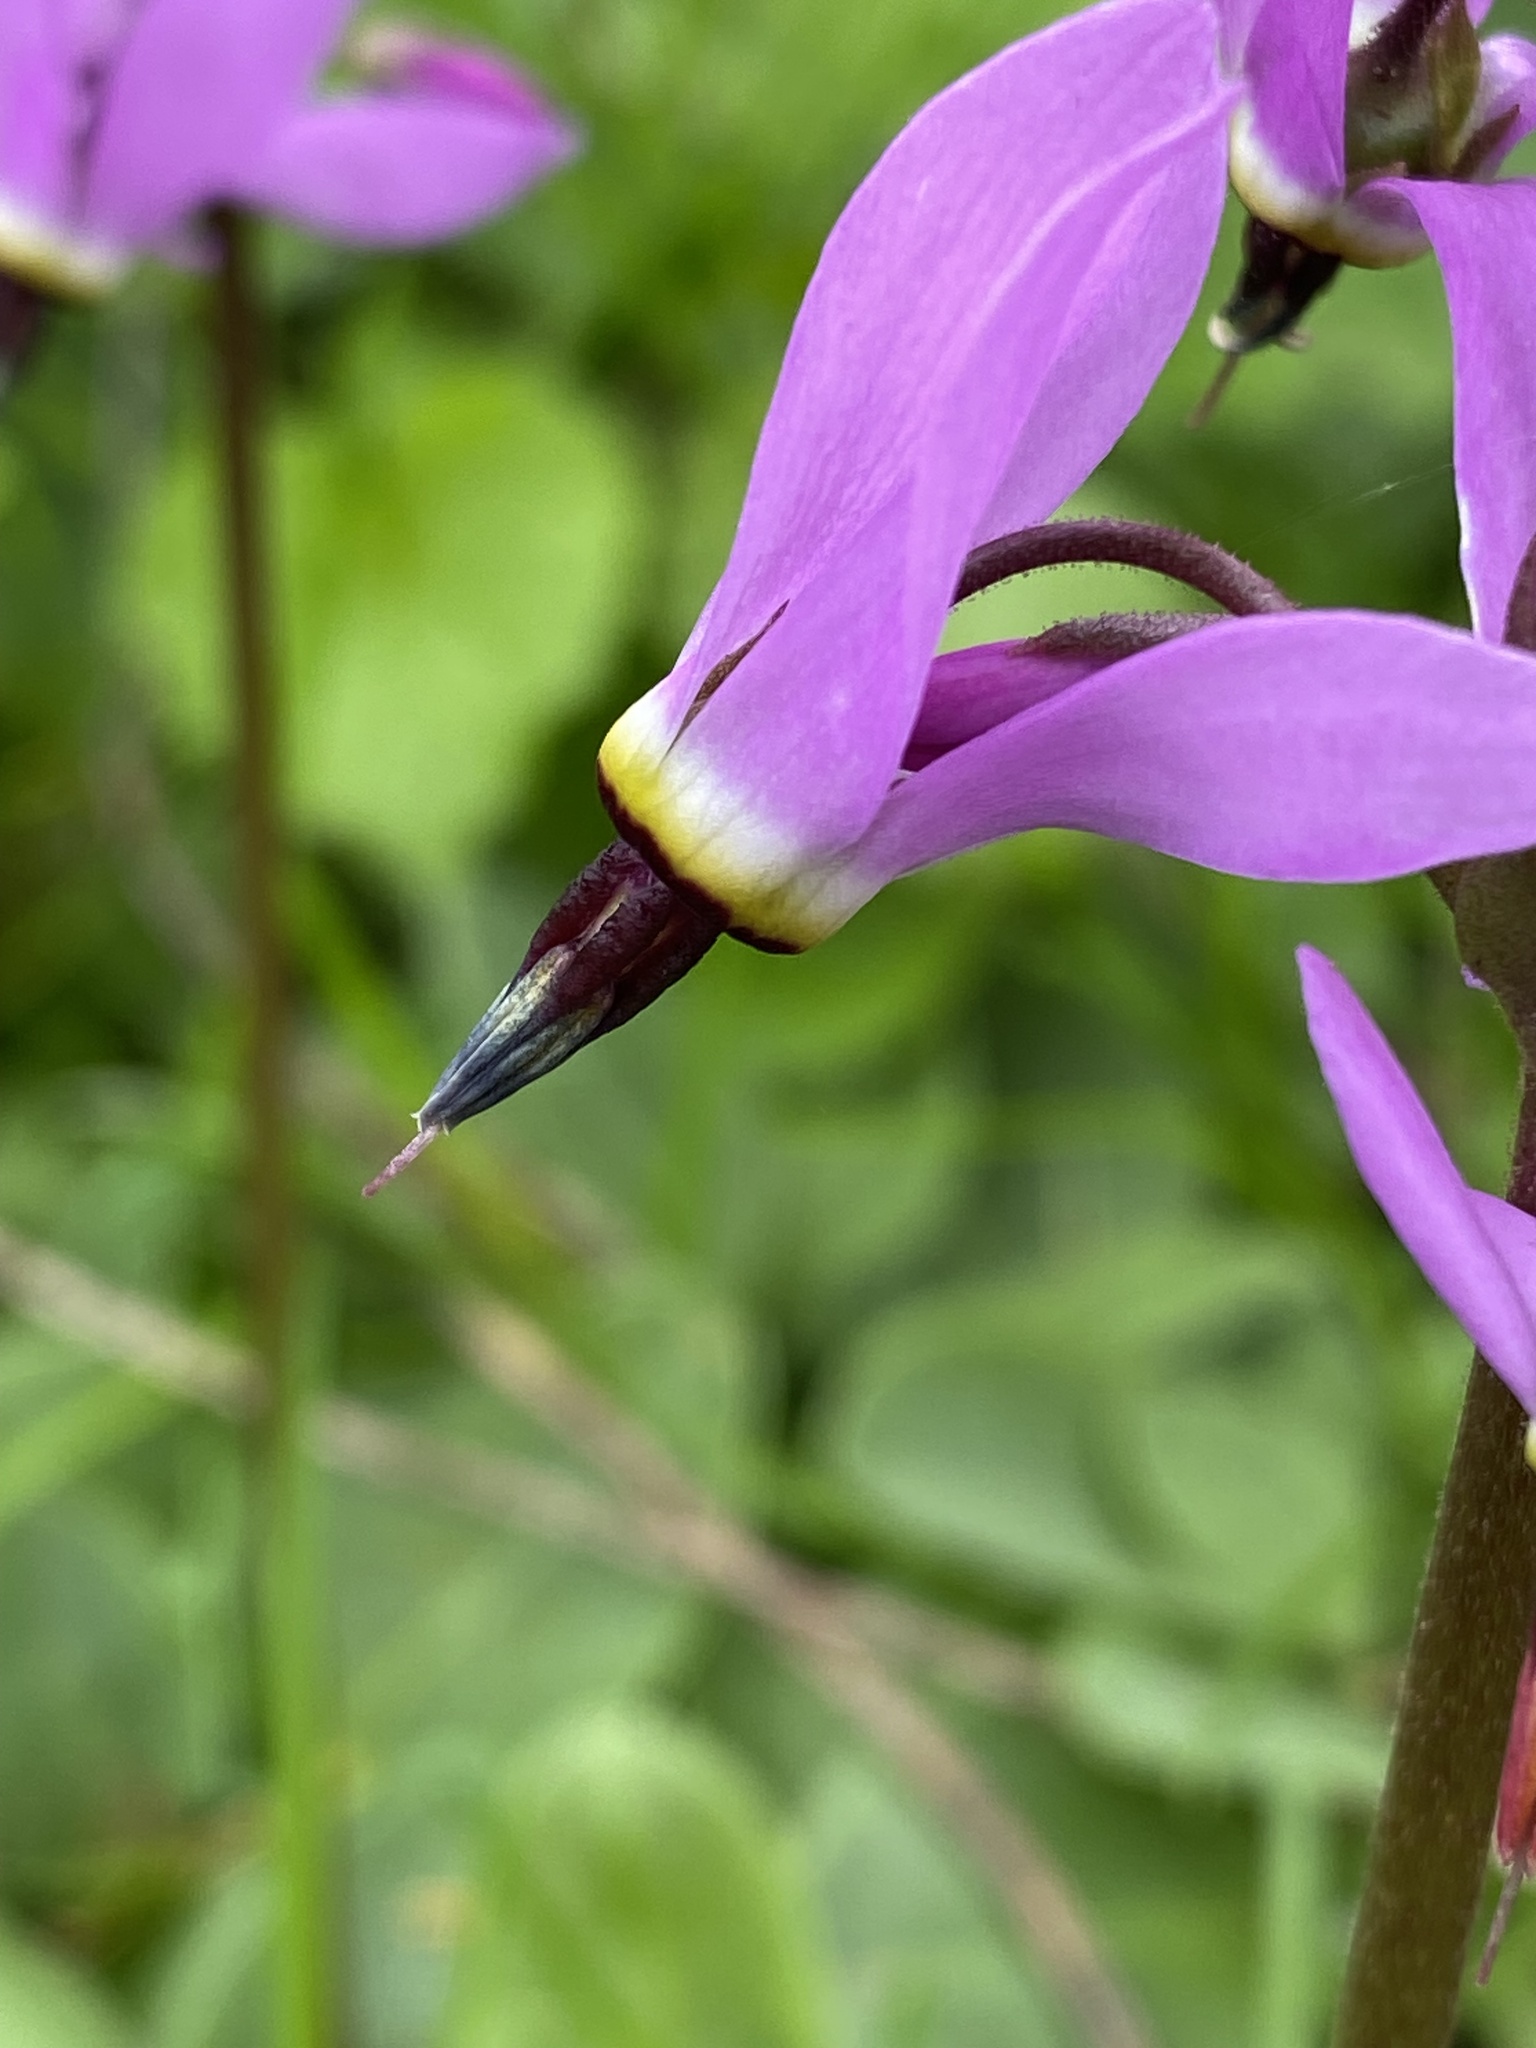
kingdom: Plantae
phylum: Tracheophyta
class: Magnoliopsida
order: Ericales
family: Primulaceae
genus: Dodecatheon
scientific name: Dodecatheon hendersonii
